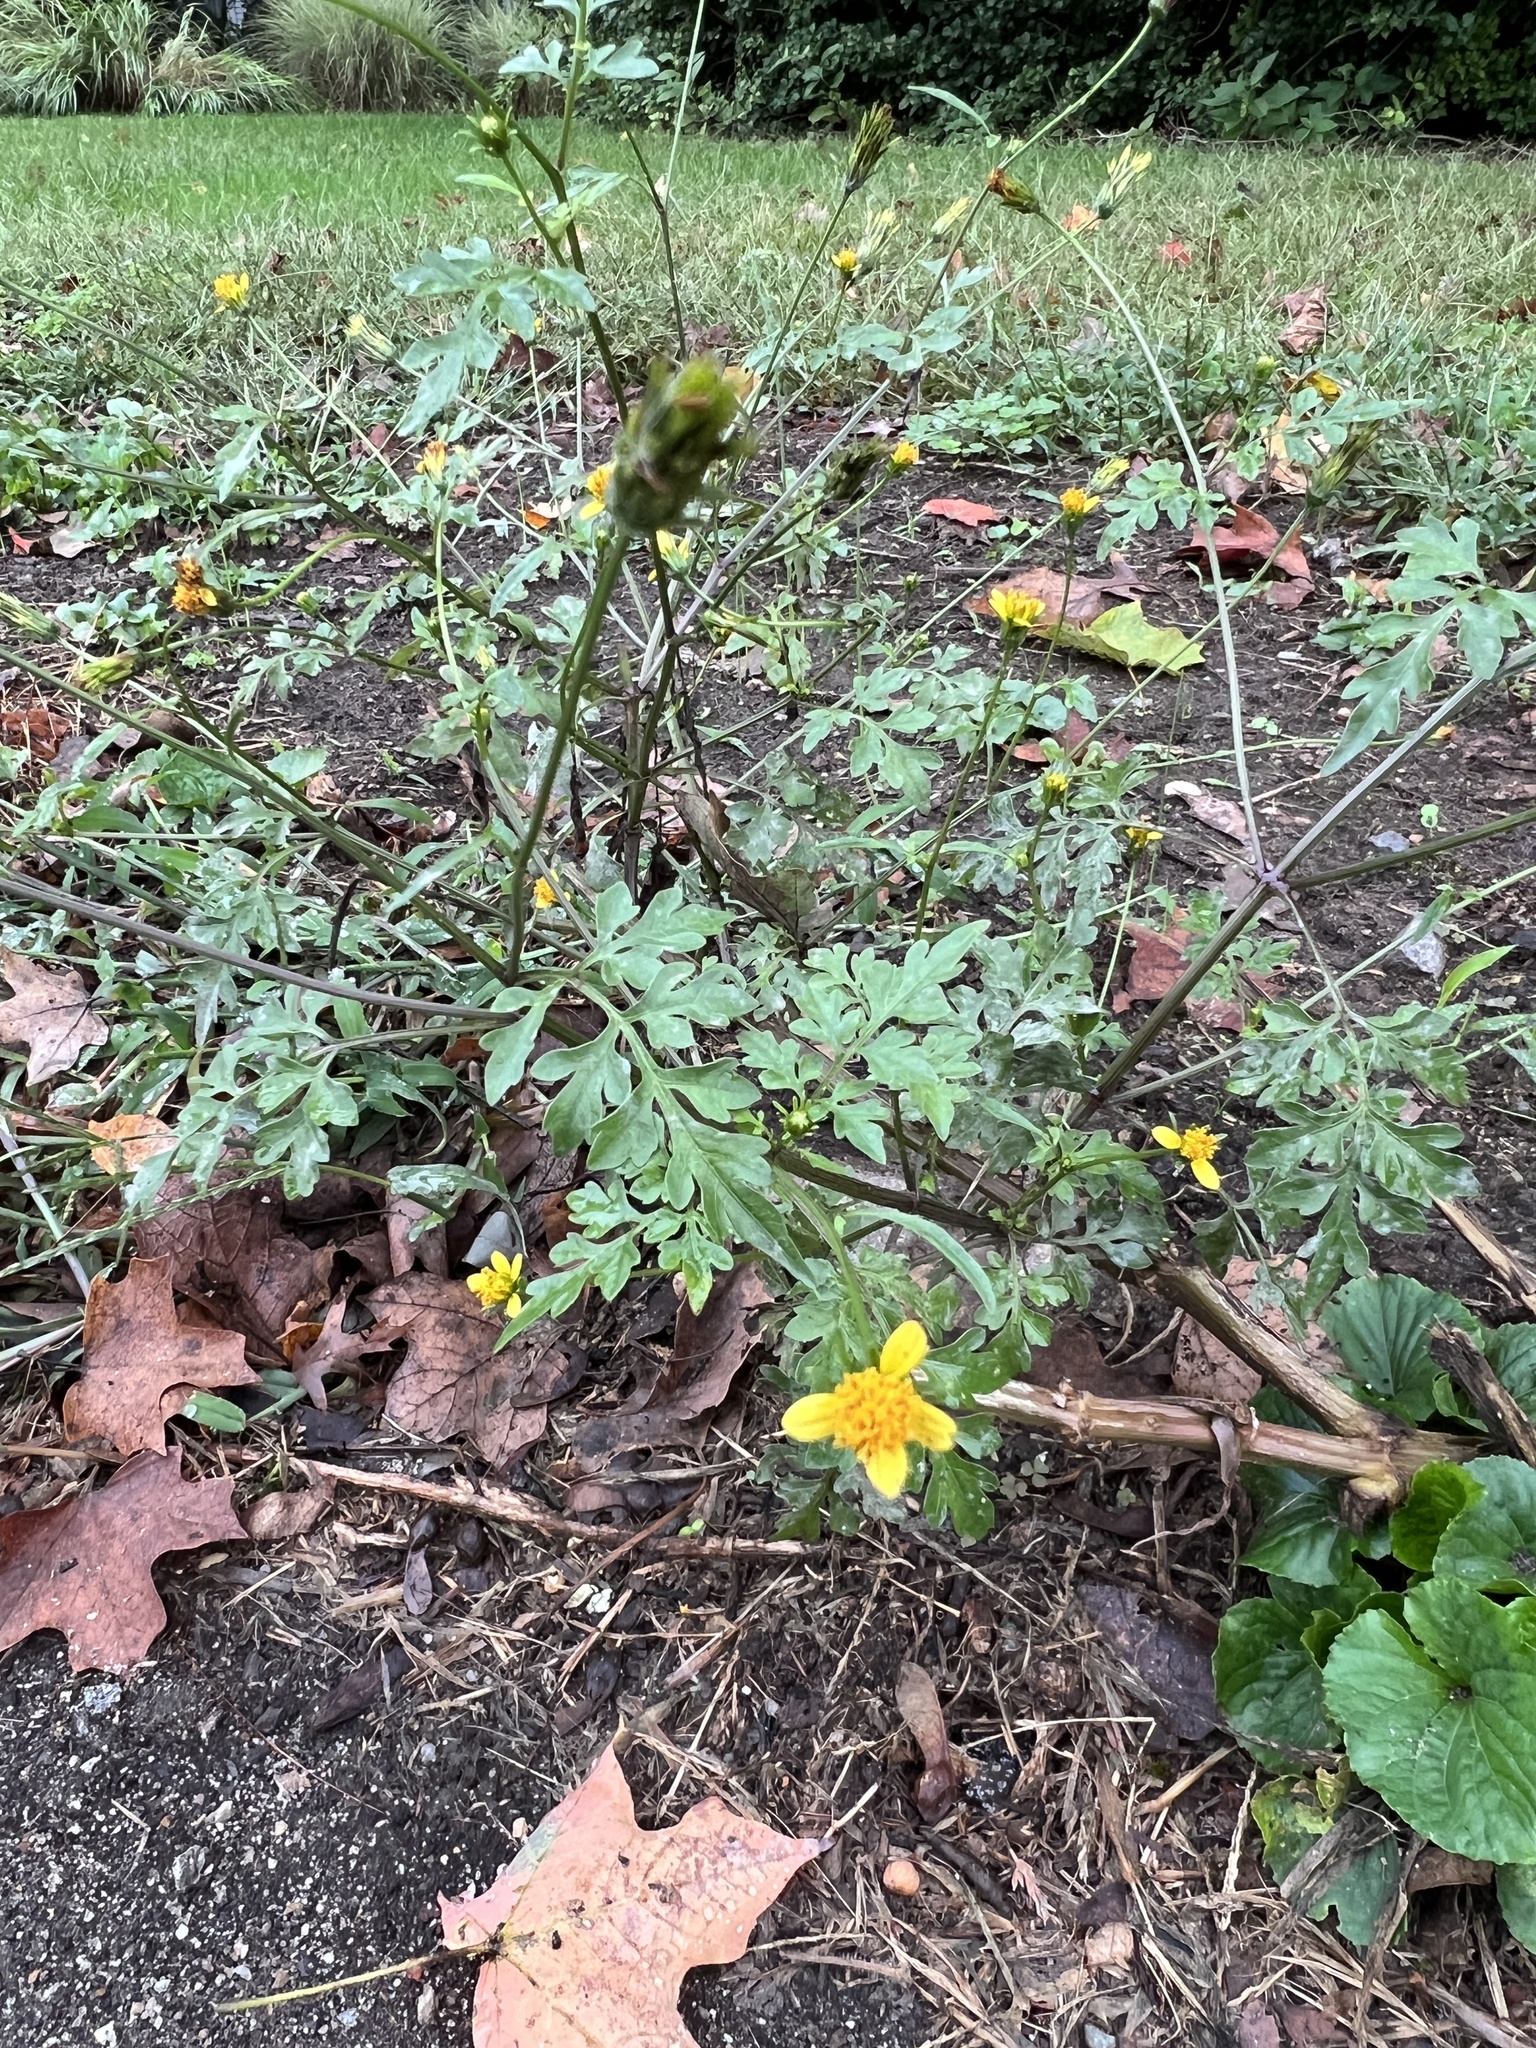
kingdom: Plantae
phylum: Tracheophyta
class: Magnoliopsida
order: Asterales
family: Asteraceae
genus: Bidens
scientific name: Bidens bipinnata
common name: Spanish-needles
